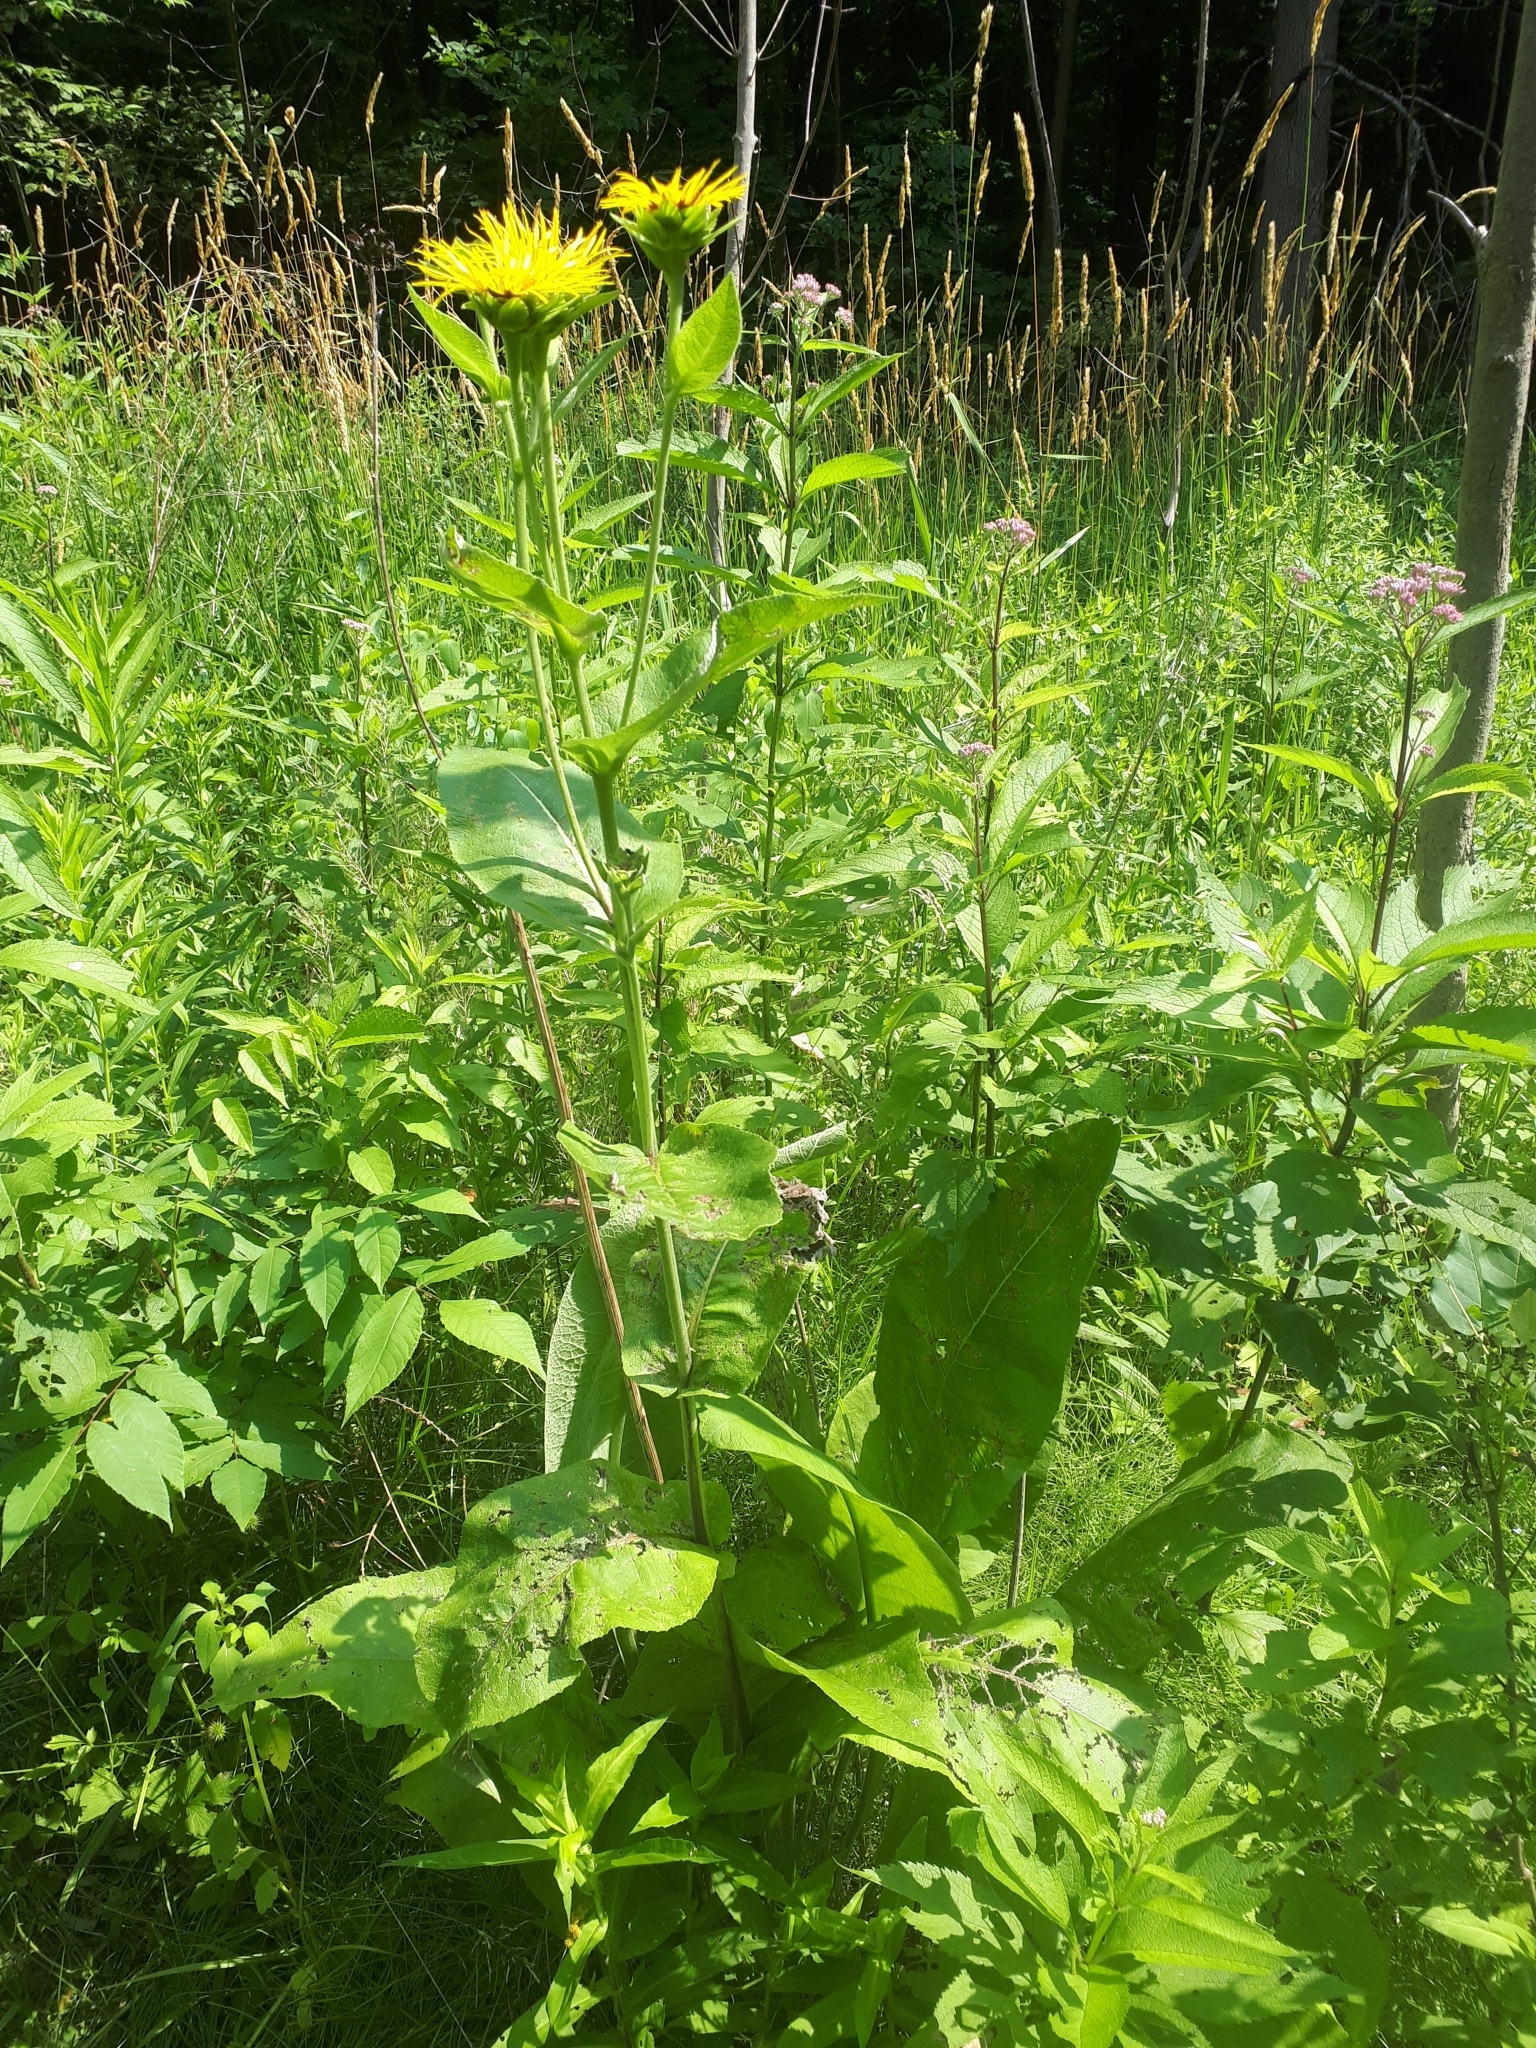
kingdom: Plantae
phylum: Tracheophyta
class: Magnoliopsida
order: Asterales
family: Asteraceae
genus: Inula
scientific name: Inula helenium
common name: Elecampane
